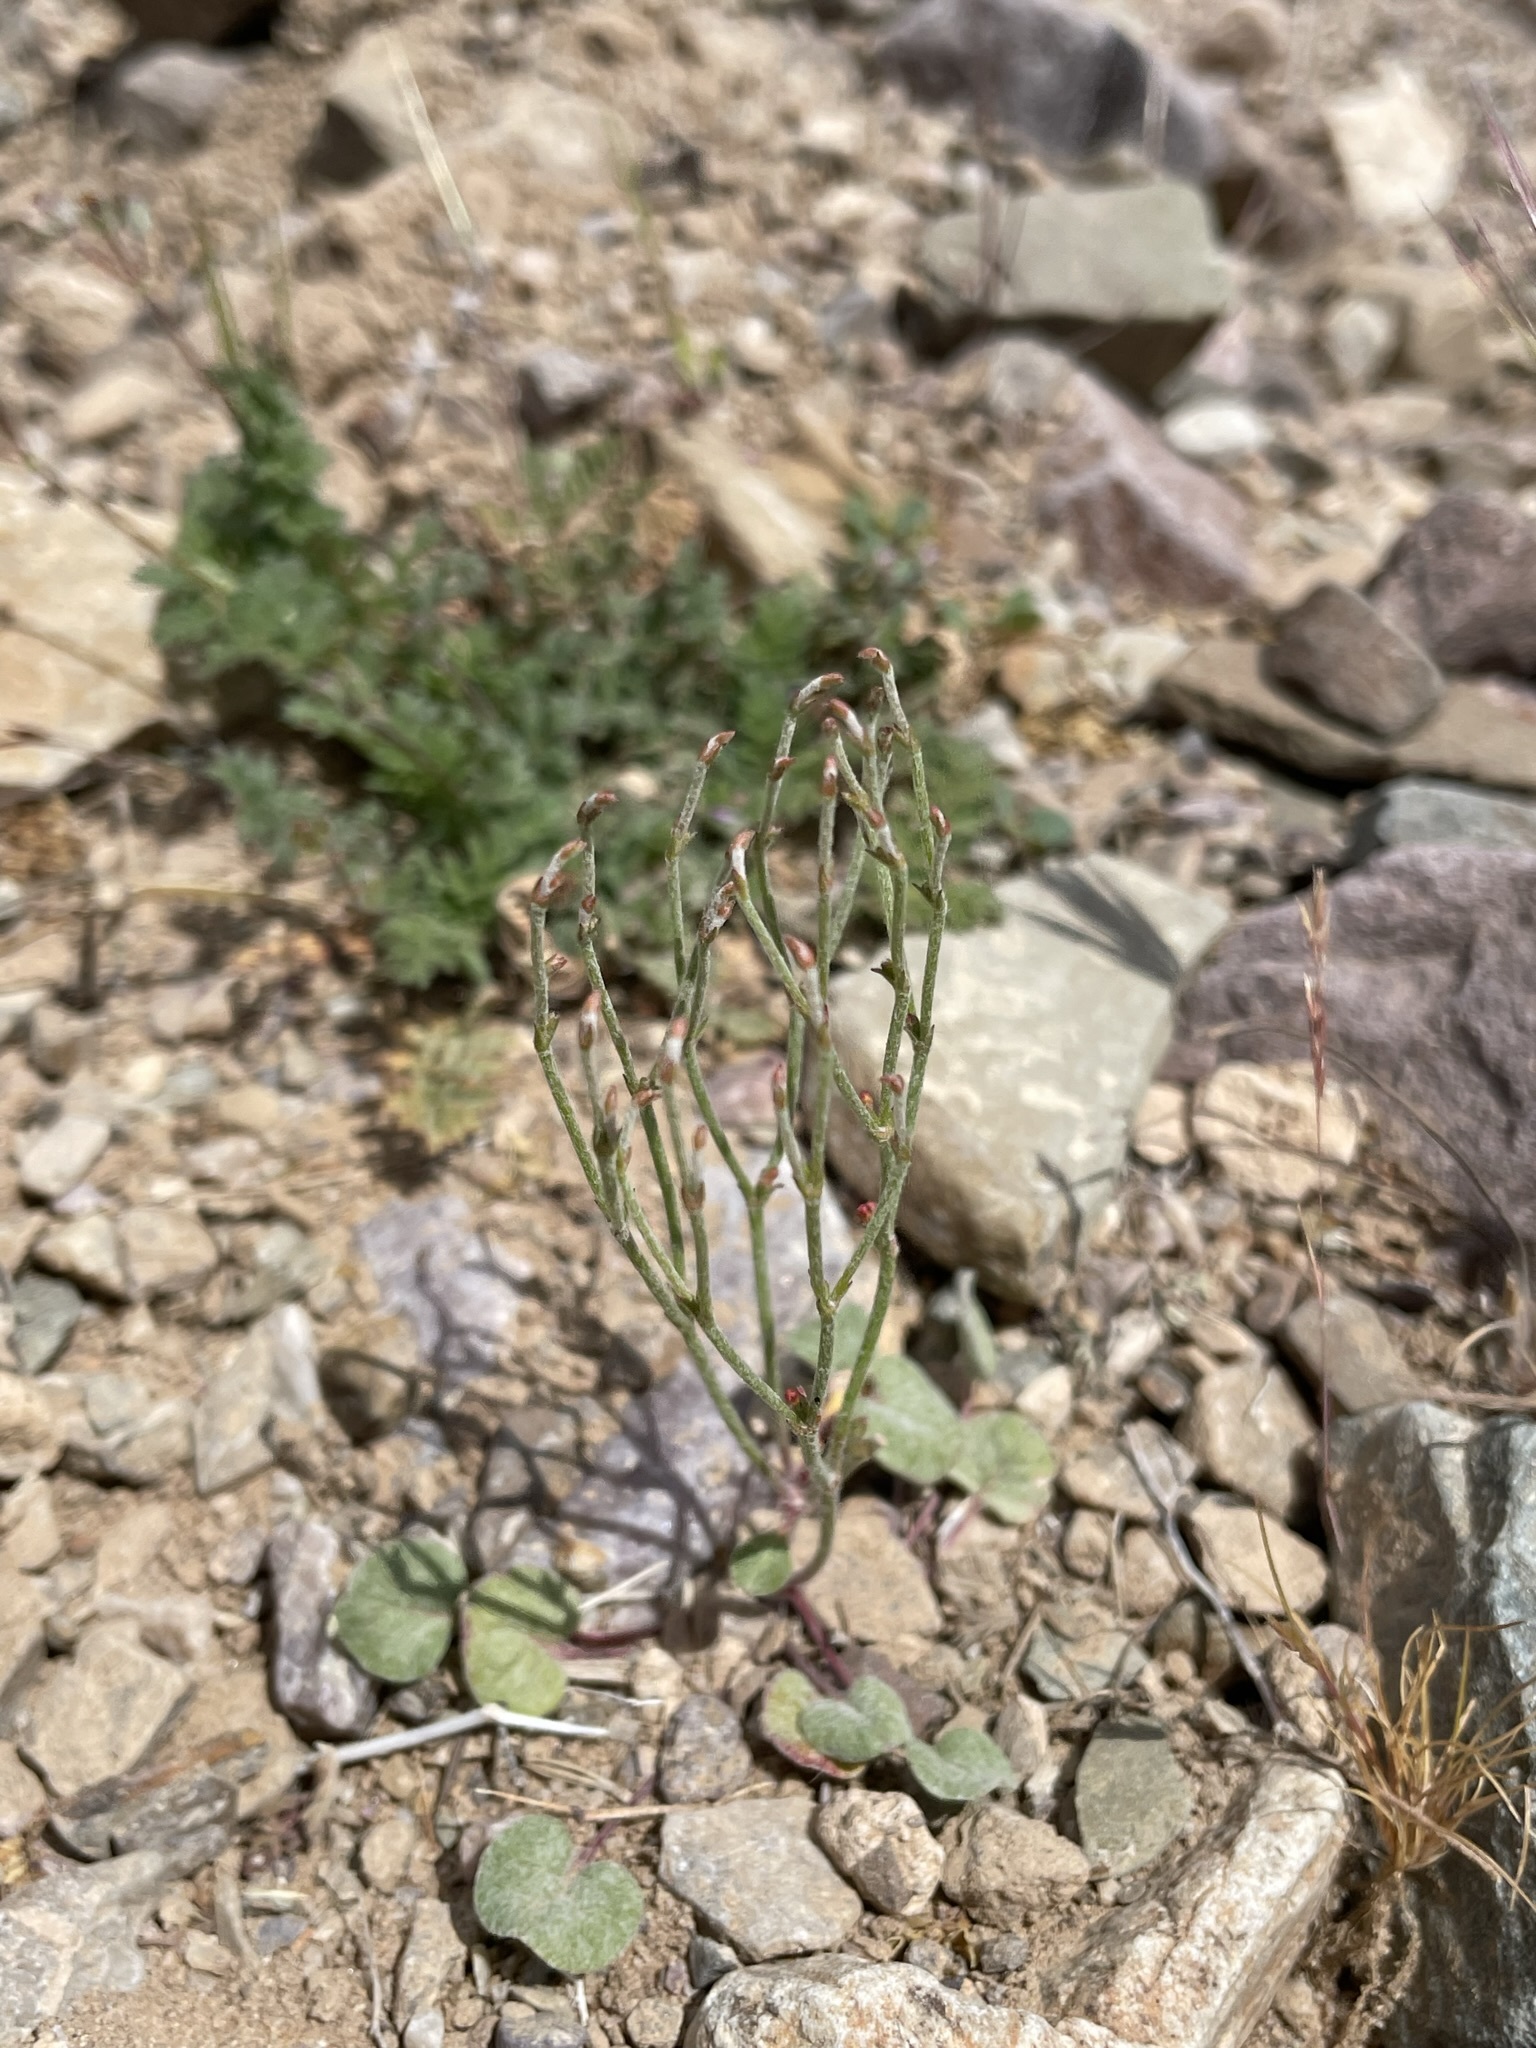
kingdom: Plantae
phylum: Tracheophyta
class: Magnoliopsida
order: Caryophyllales
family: Polygonaceae
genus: Eriogonum
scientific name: Eriogonum nidularium
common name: Bird's-nest wild buckwheat
